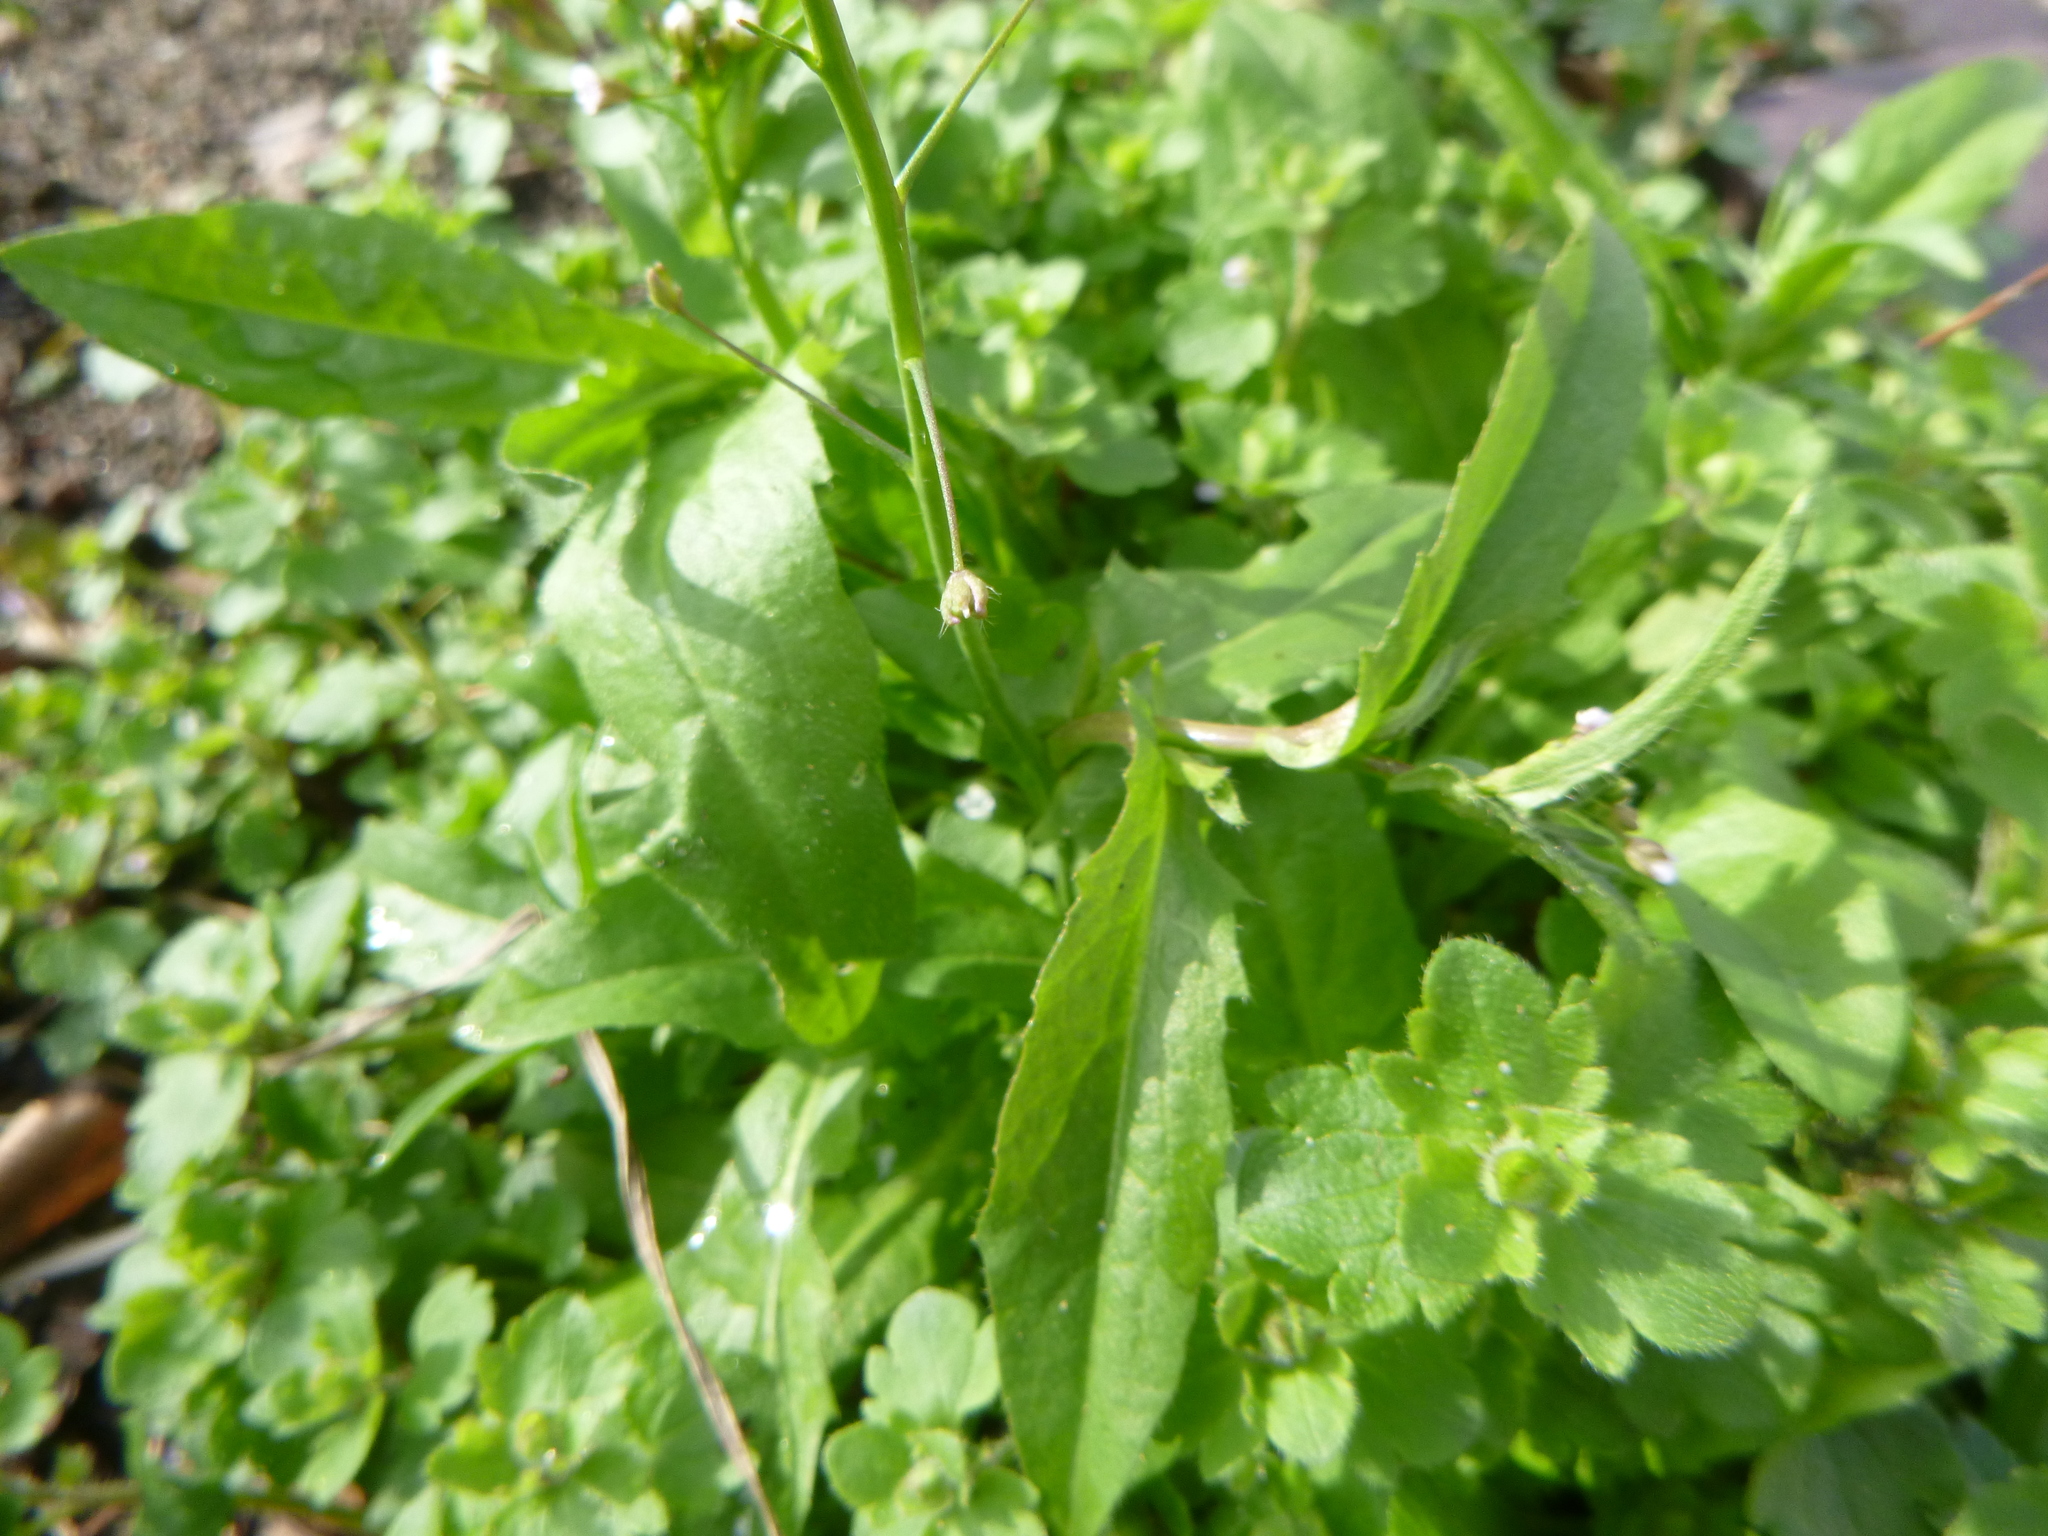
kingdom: Plantae
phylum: Tracheophyta
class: Magnoliopsida
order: Brassicales
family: Brassicaceae
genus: Capsella
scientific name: Capsella bursa-pastoris
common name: Shepherd's purse
